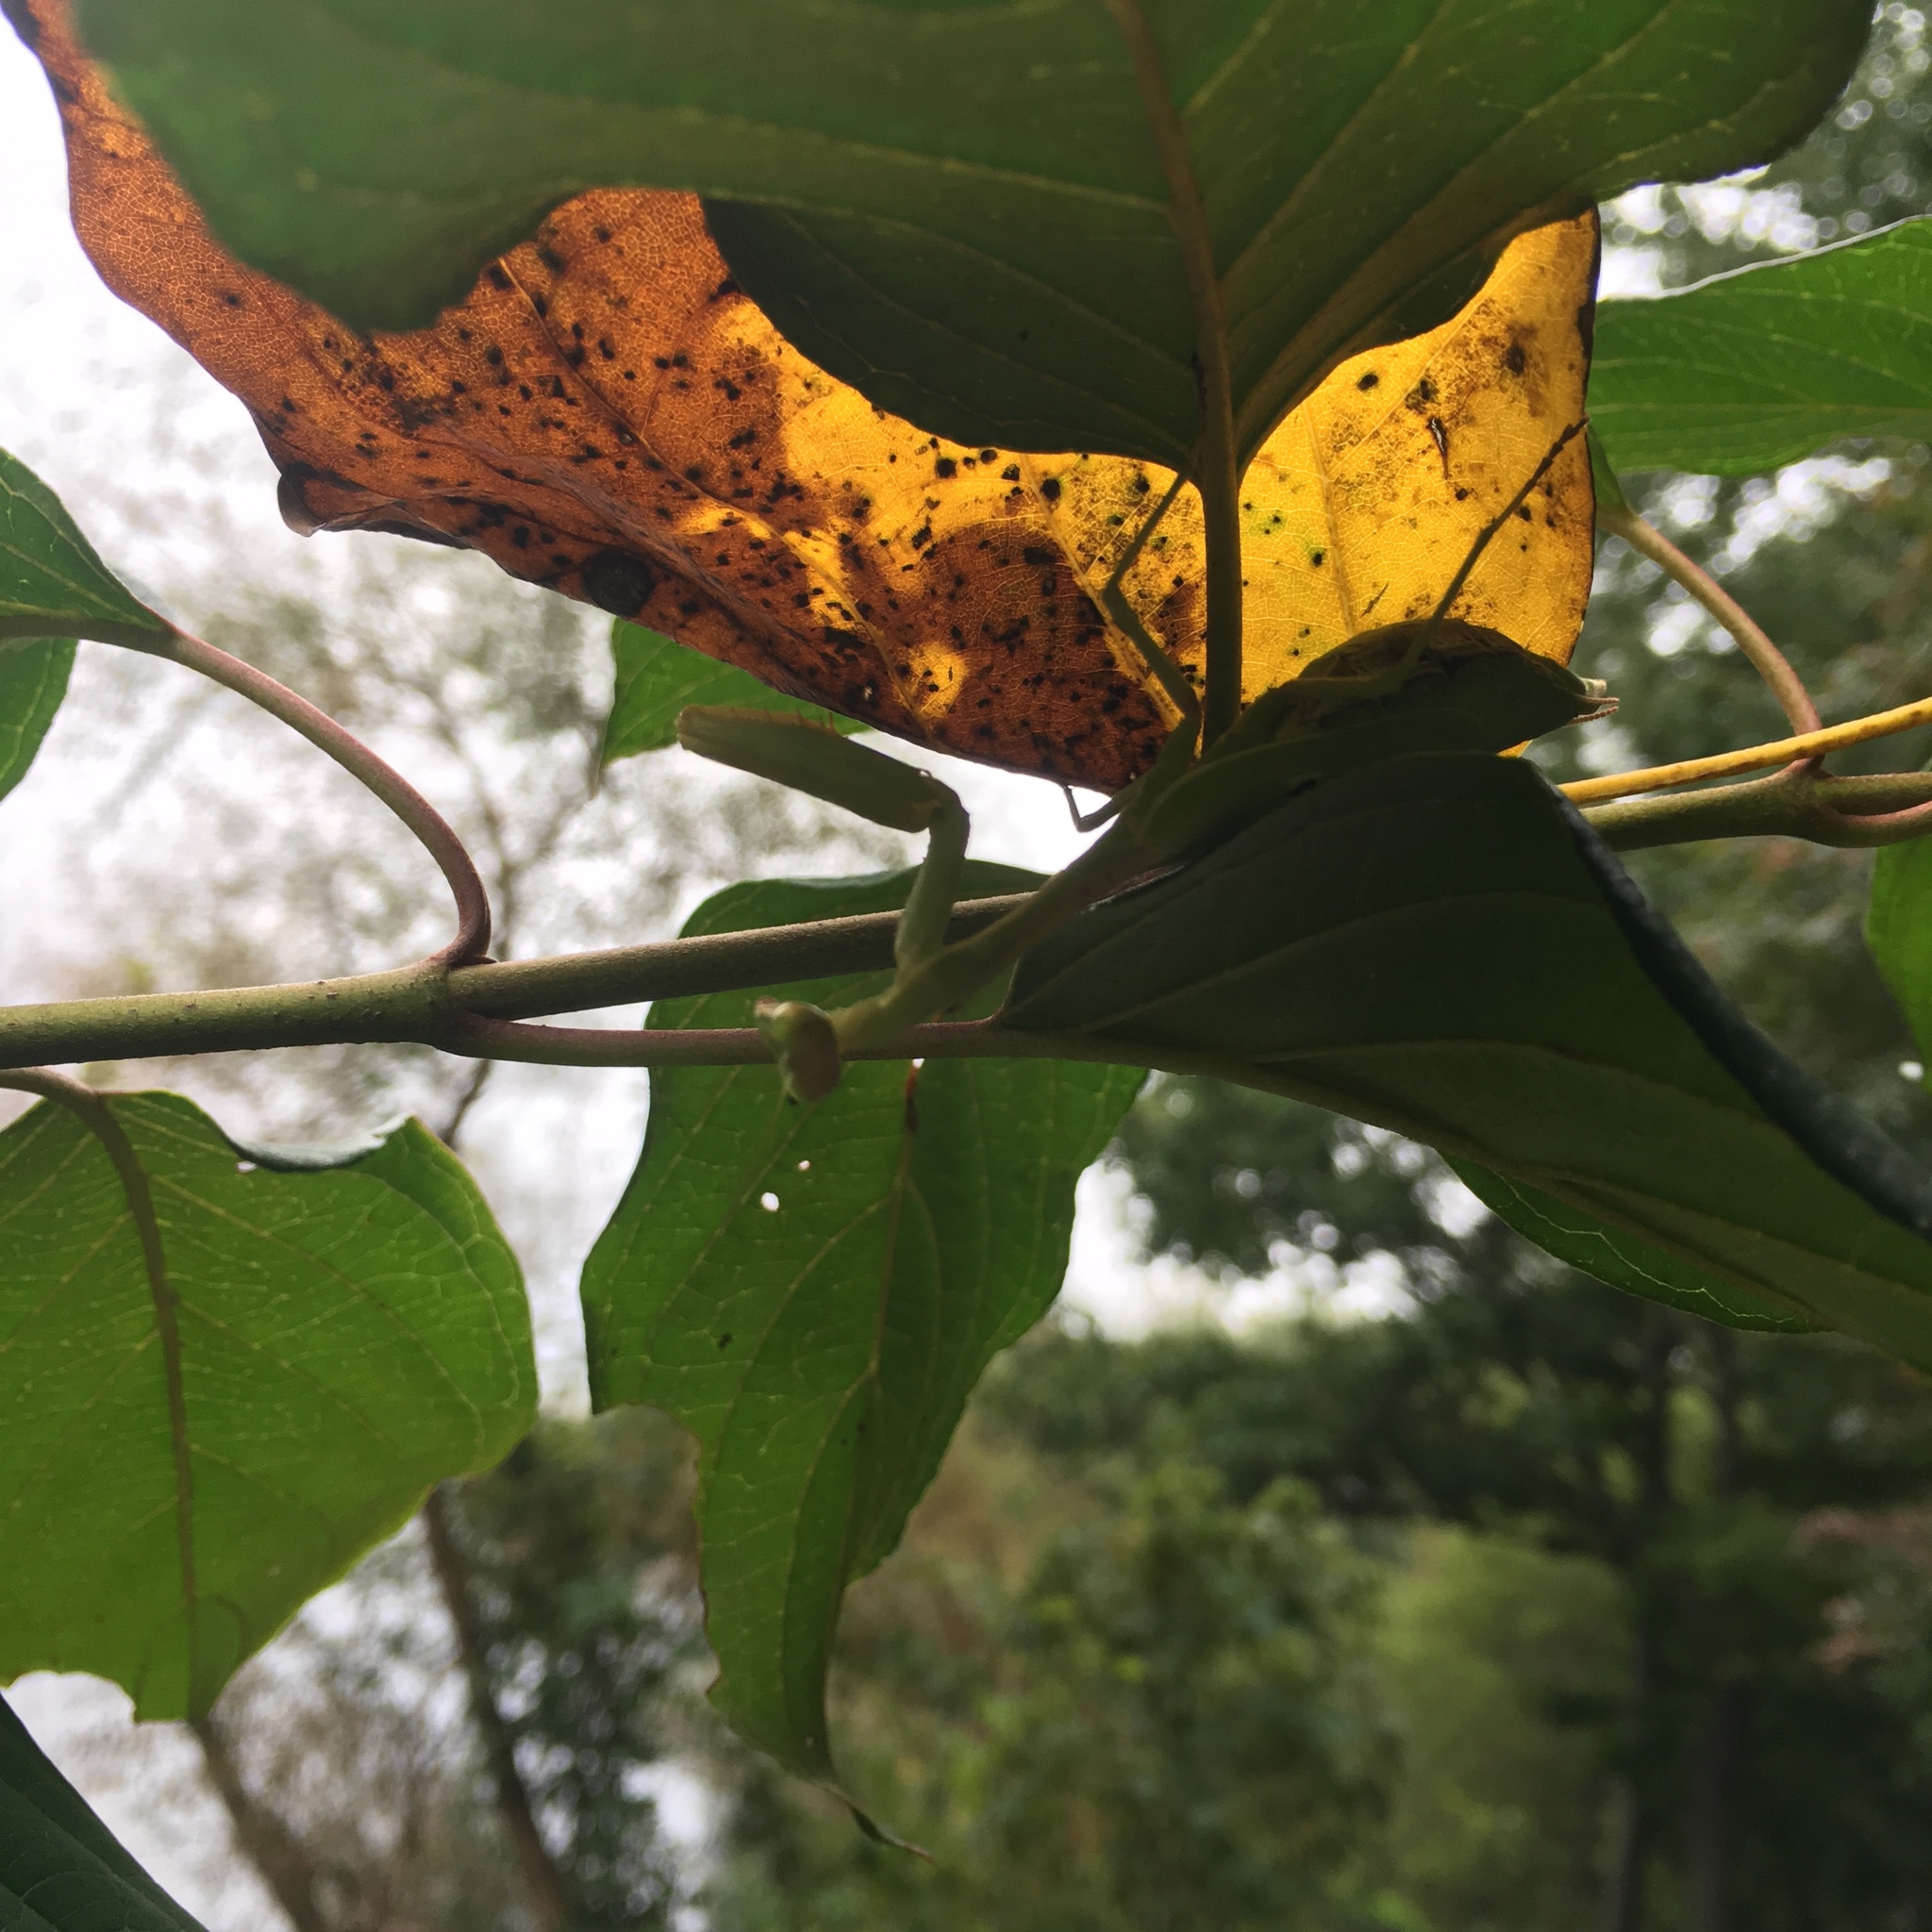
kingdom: Animalia
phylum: Arthropoda
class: Insecta
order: Mantodea
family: Mantidae
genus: Stagmomantis
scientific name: Stagmomantis carolina
